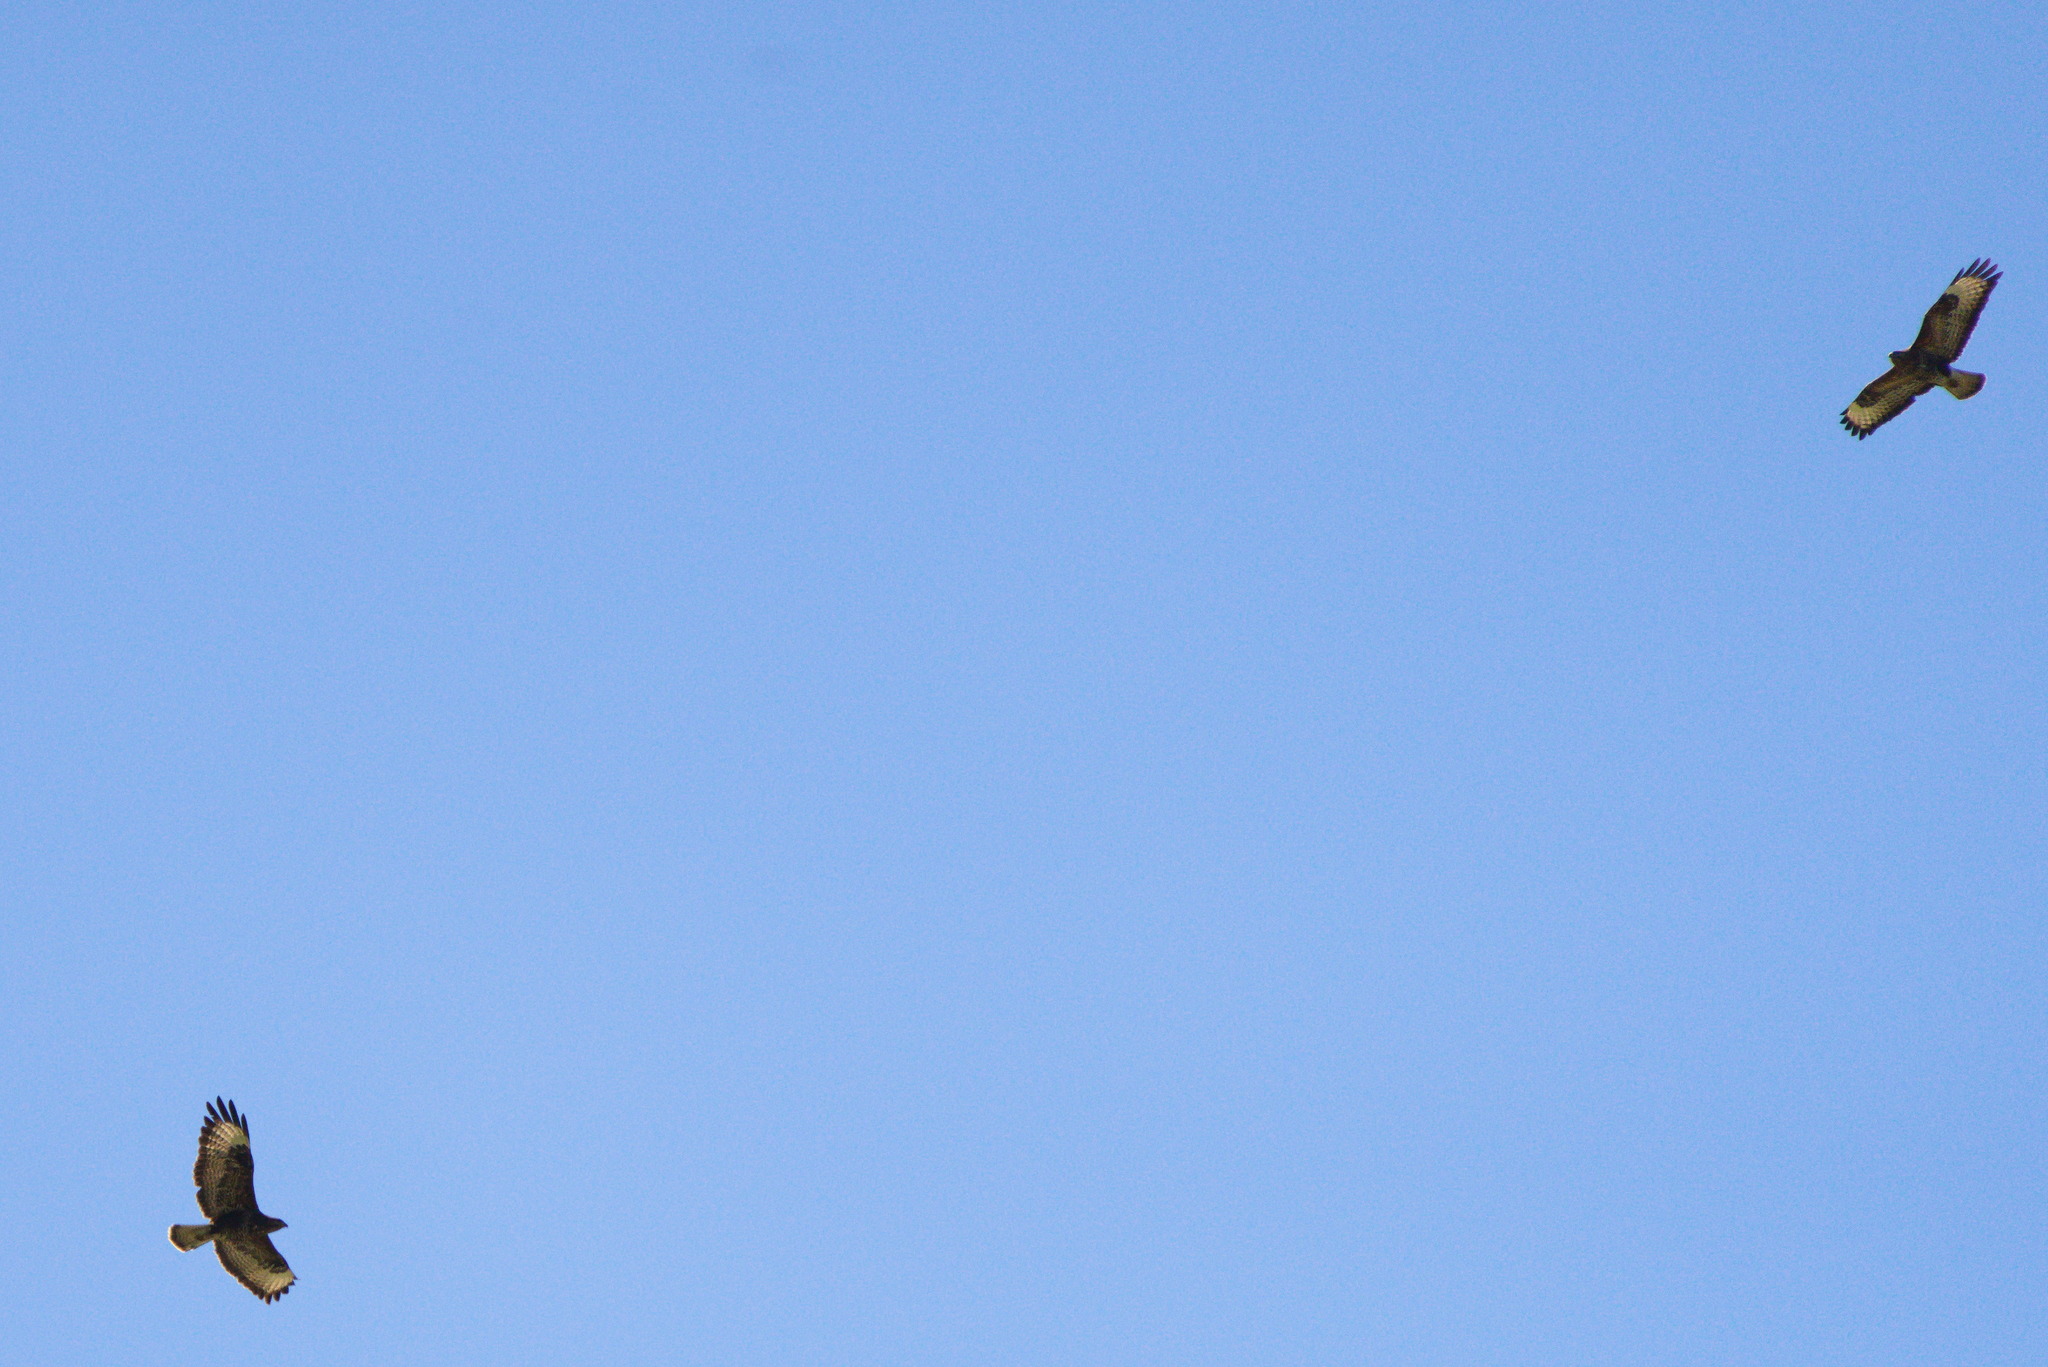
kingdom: Animalia
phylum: Chordata
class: Aves
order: Accipitriformes
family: Accipitridae
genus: Buteo
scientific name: Buteo buteo
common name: Common buzzard
